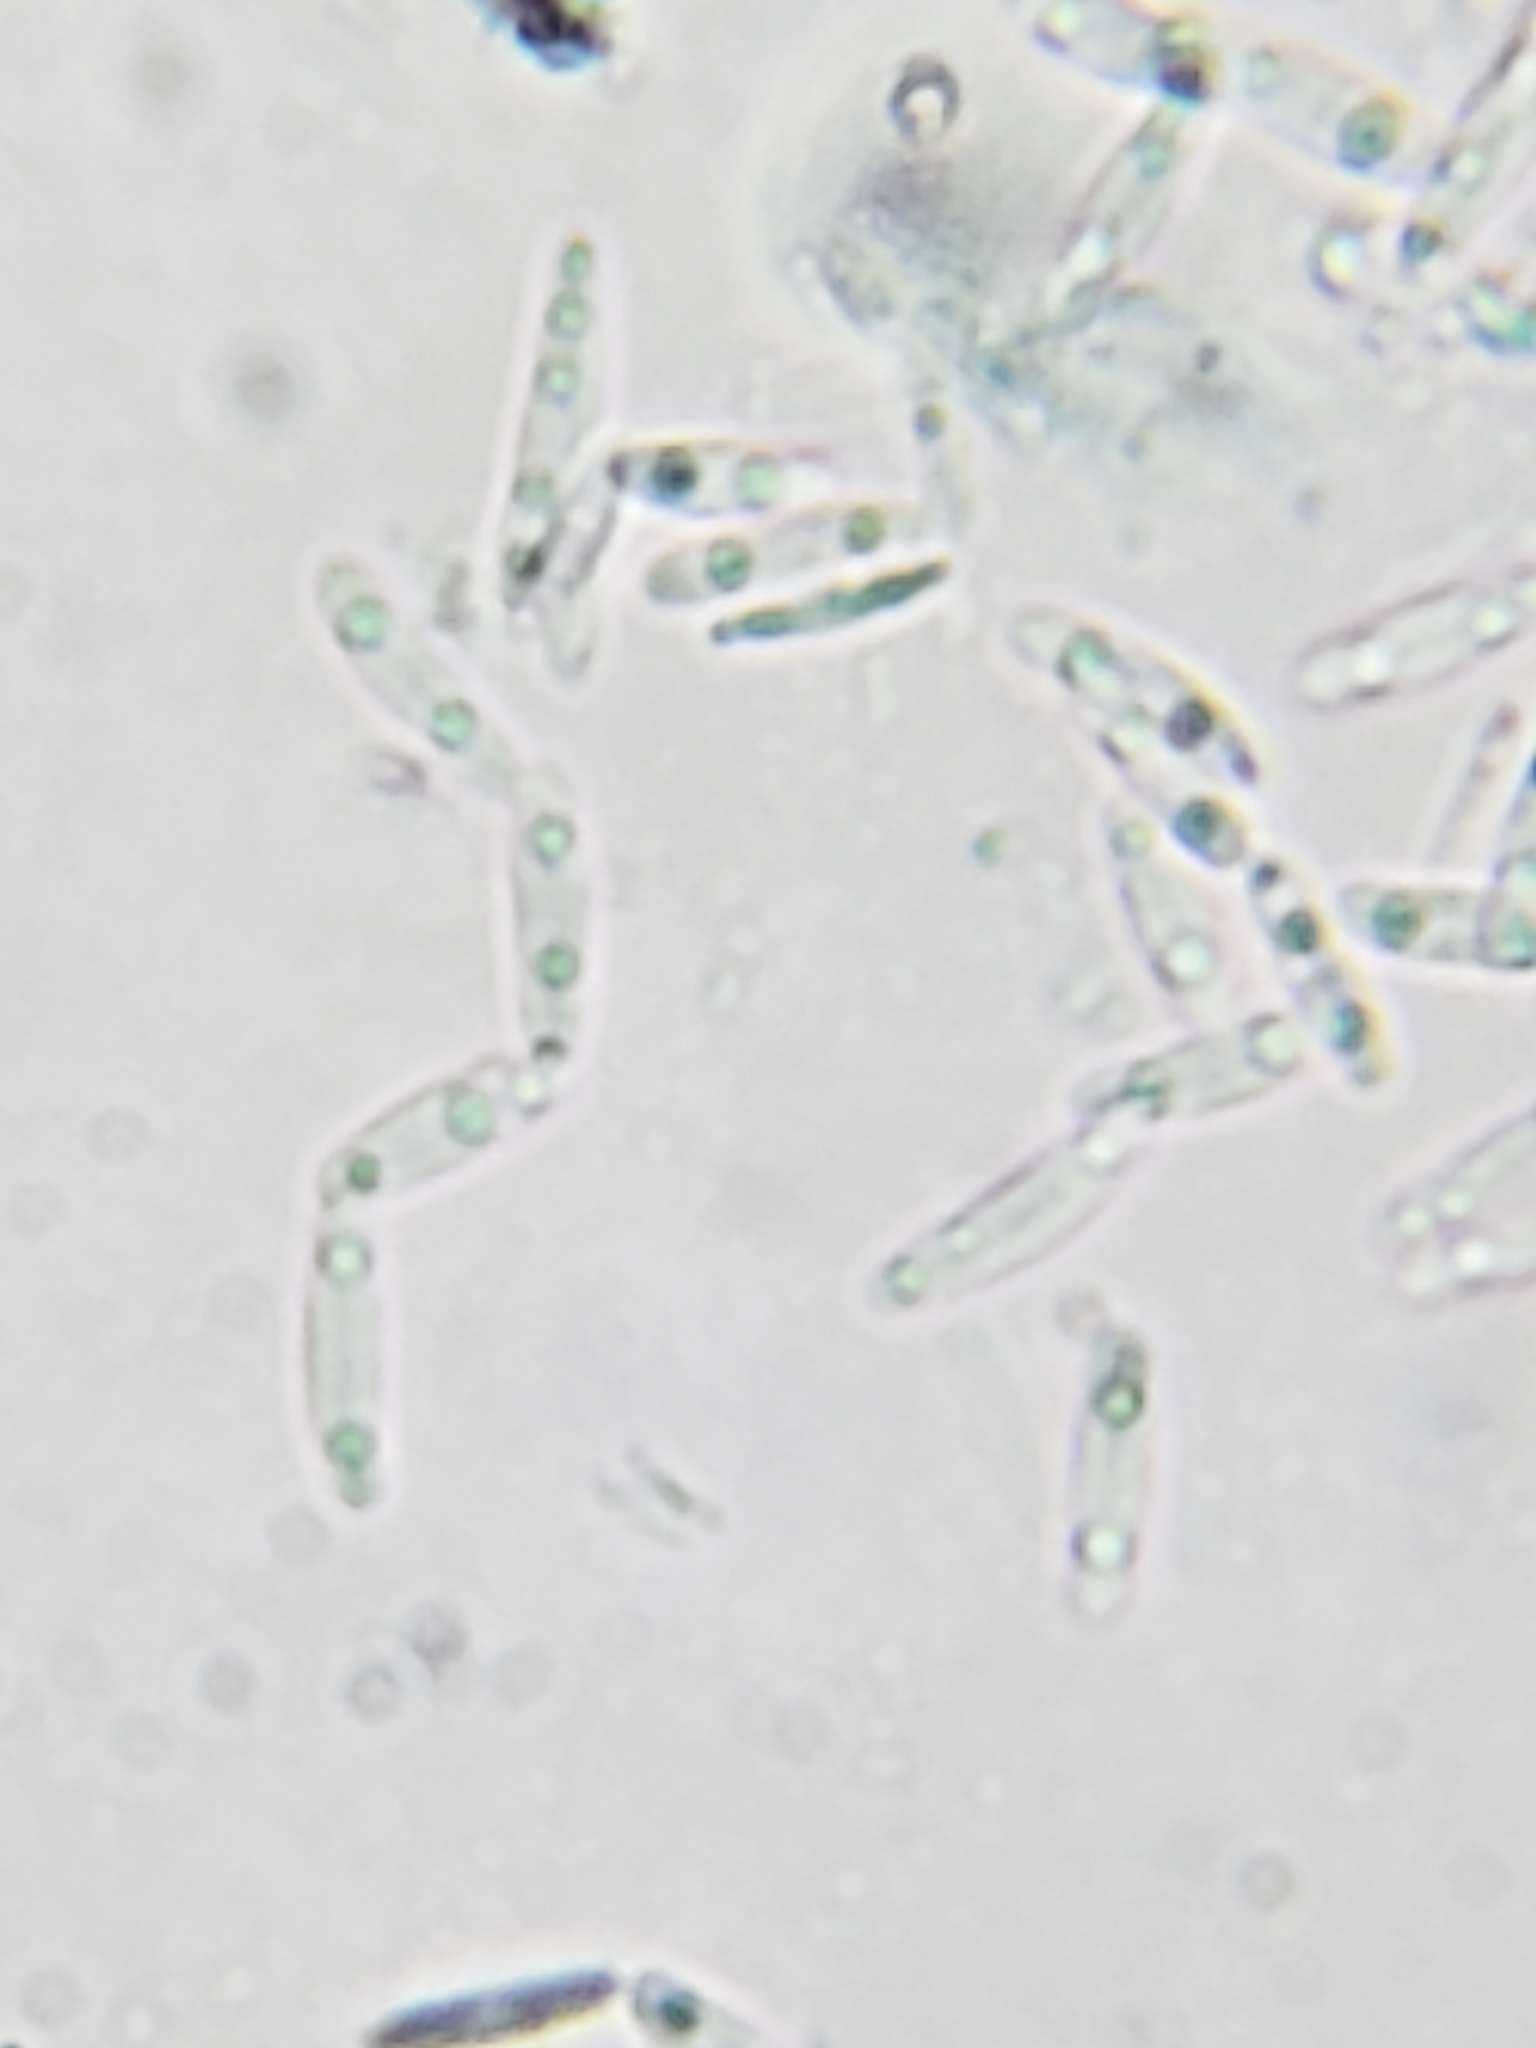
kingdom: Fungi
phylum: Ascomycota
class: Leotiomycetes
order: Helotiales
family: Chlorociboriaceae
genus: Chlorociboria
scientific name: Chlorociboria aeruginascens
